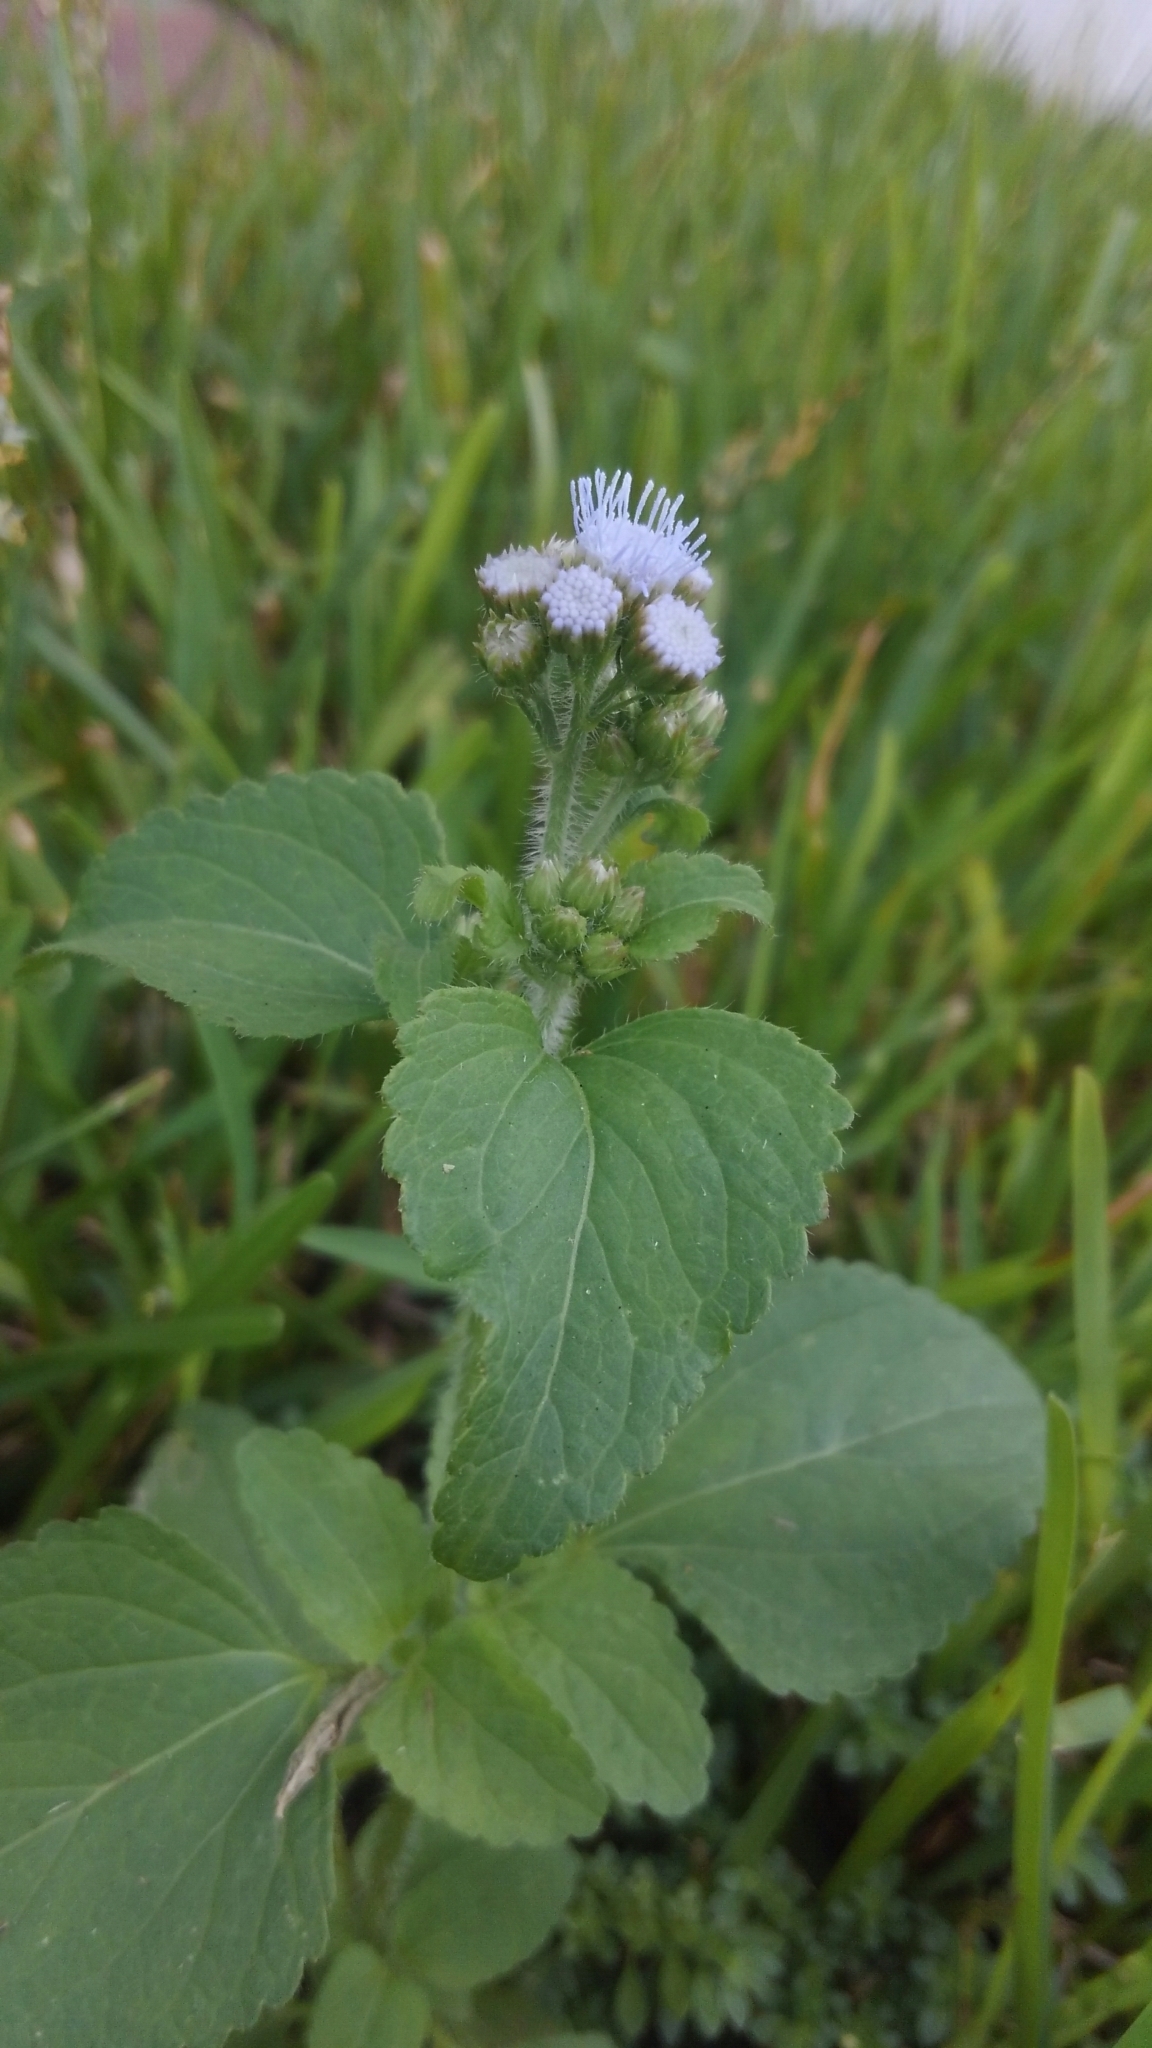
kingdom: Plantae
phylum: Tracheophyta
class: Magnoliopsida
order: Asterales
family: Asteraceae
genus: Ageratum
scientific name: Ageratum houstonianum
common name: Bluemink
